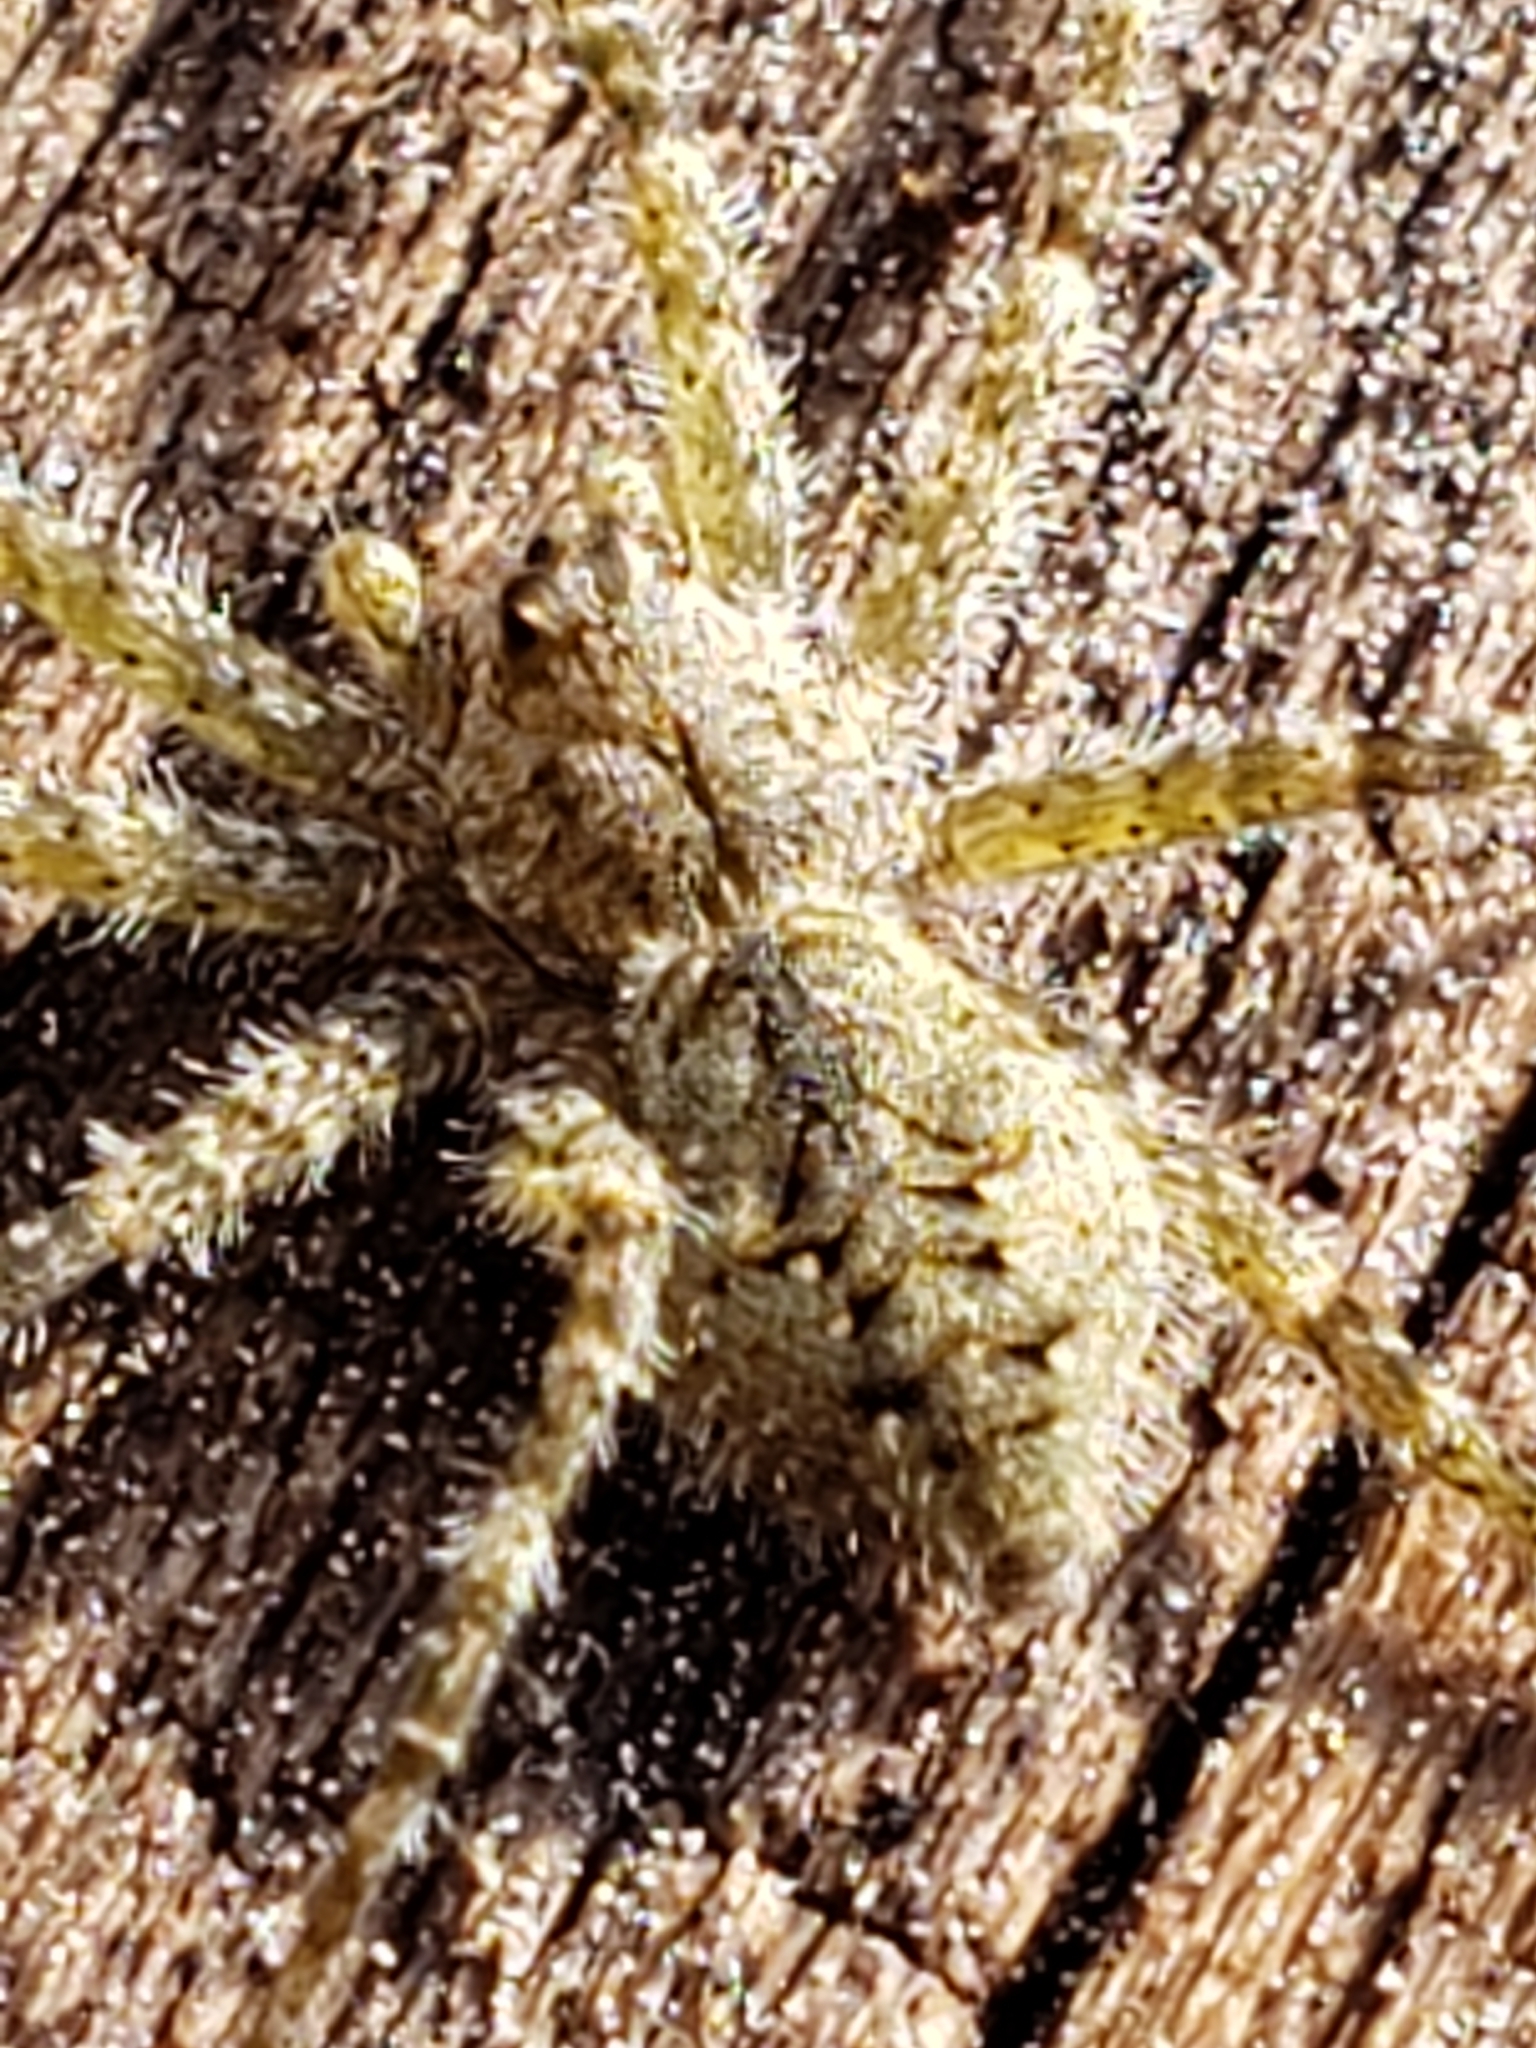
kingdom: Animalia
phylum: Arthropoda
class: Arachnida
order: Araneae
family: Pisauridae
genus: Dolomedes
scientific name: Dolomedes albineus
